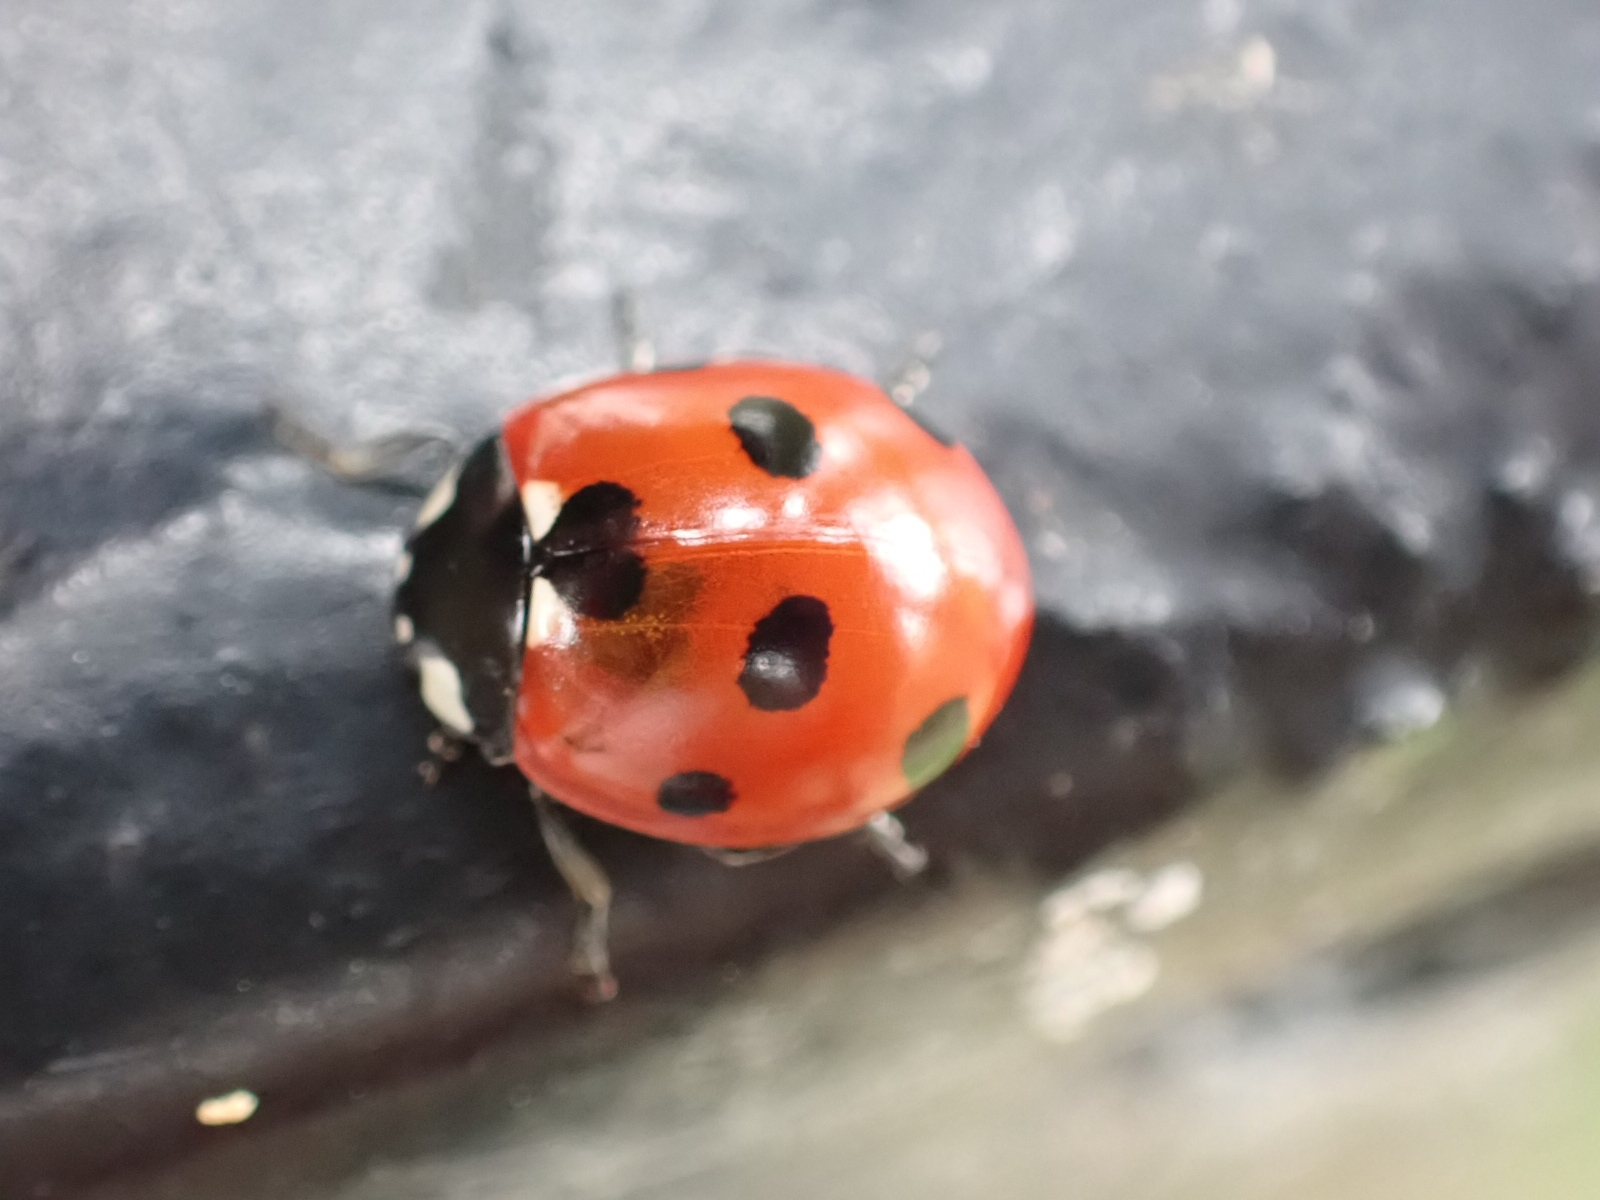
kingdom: Animalia
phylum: Arthropoda
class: Insecta
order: Coleoptera
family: Coccinellidae
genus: Coccinella
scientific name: Coccinella septempunctata
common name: Sevenspotted lady beetle
